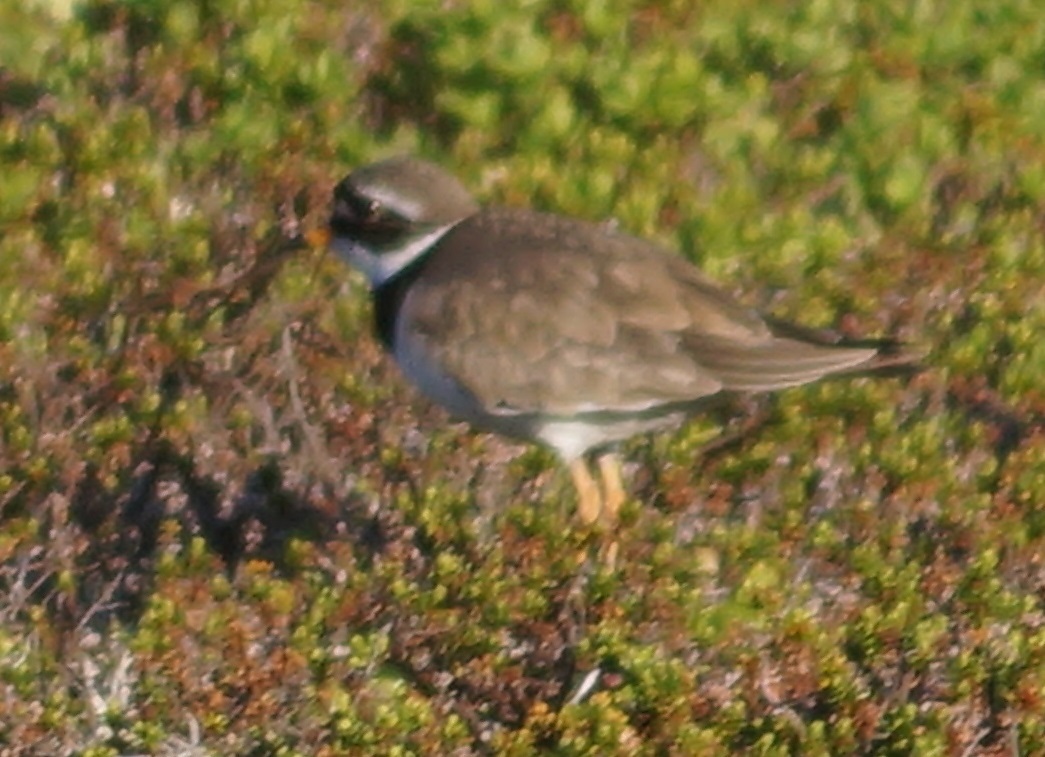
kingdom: Animalia
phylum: Chordata
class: Aves
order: Charadriiformes
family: Charadriidae
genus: Charadrius
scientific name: Charadrius hiaticula
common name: Common ringed plover
